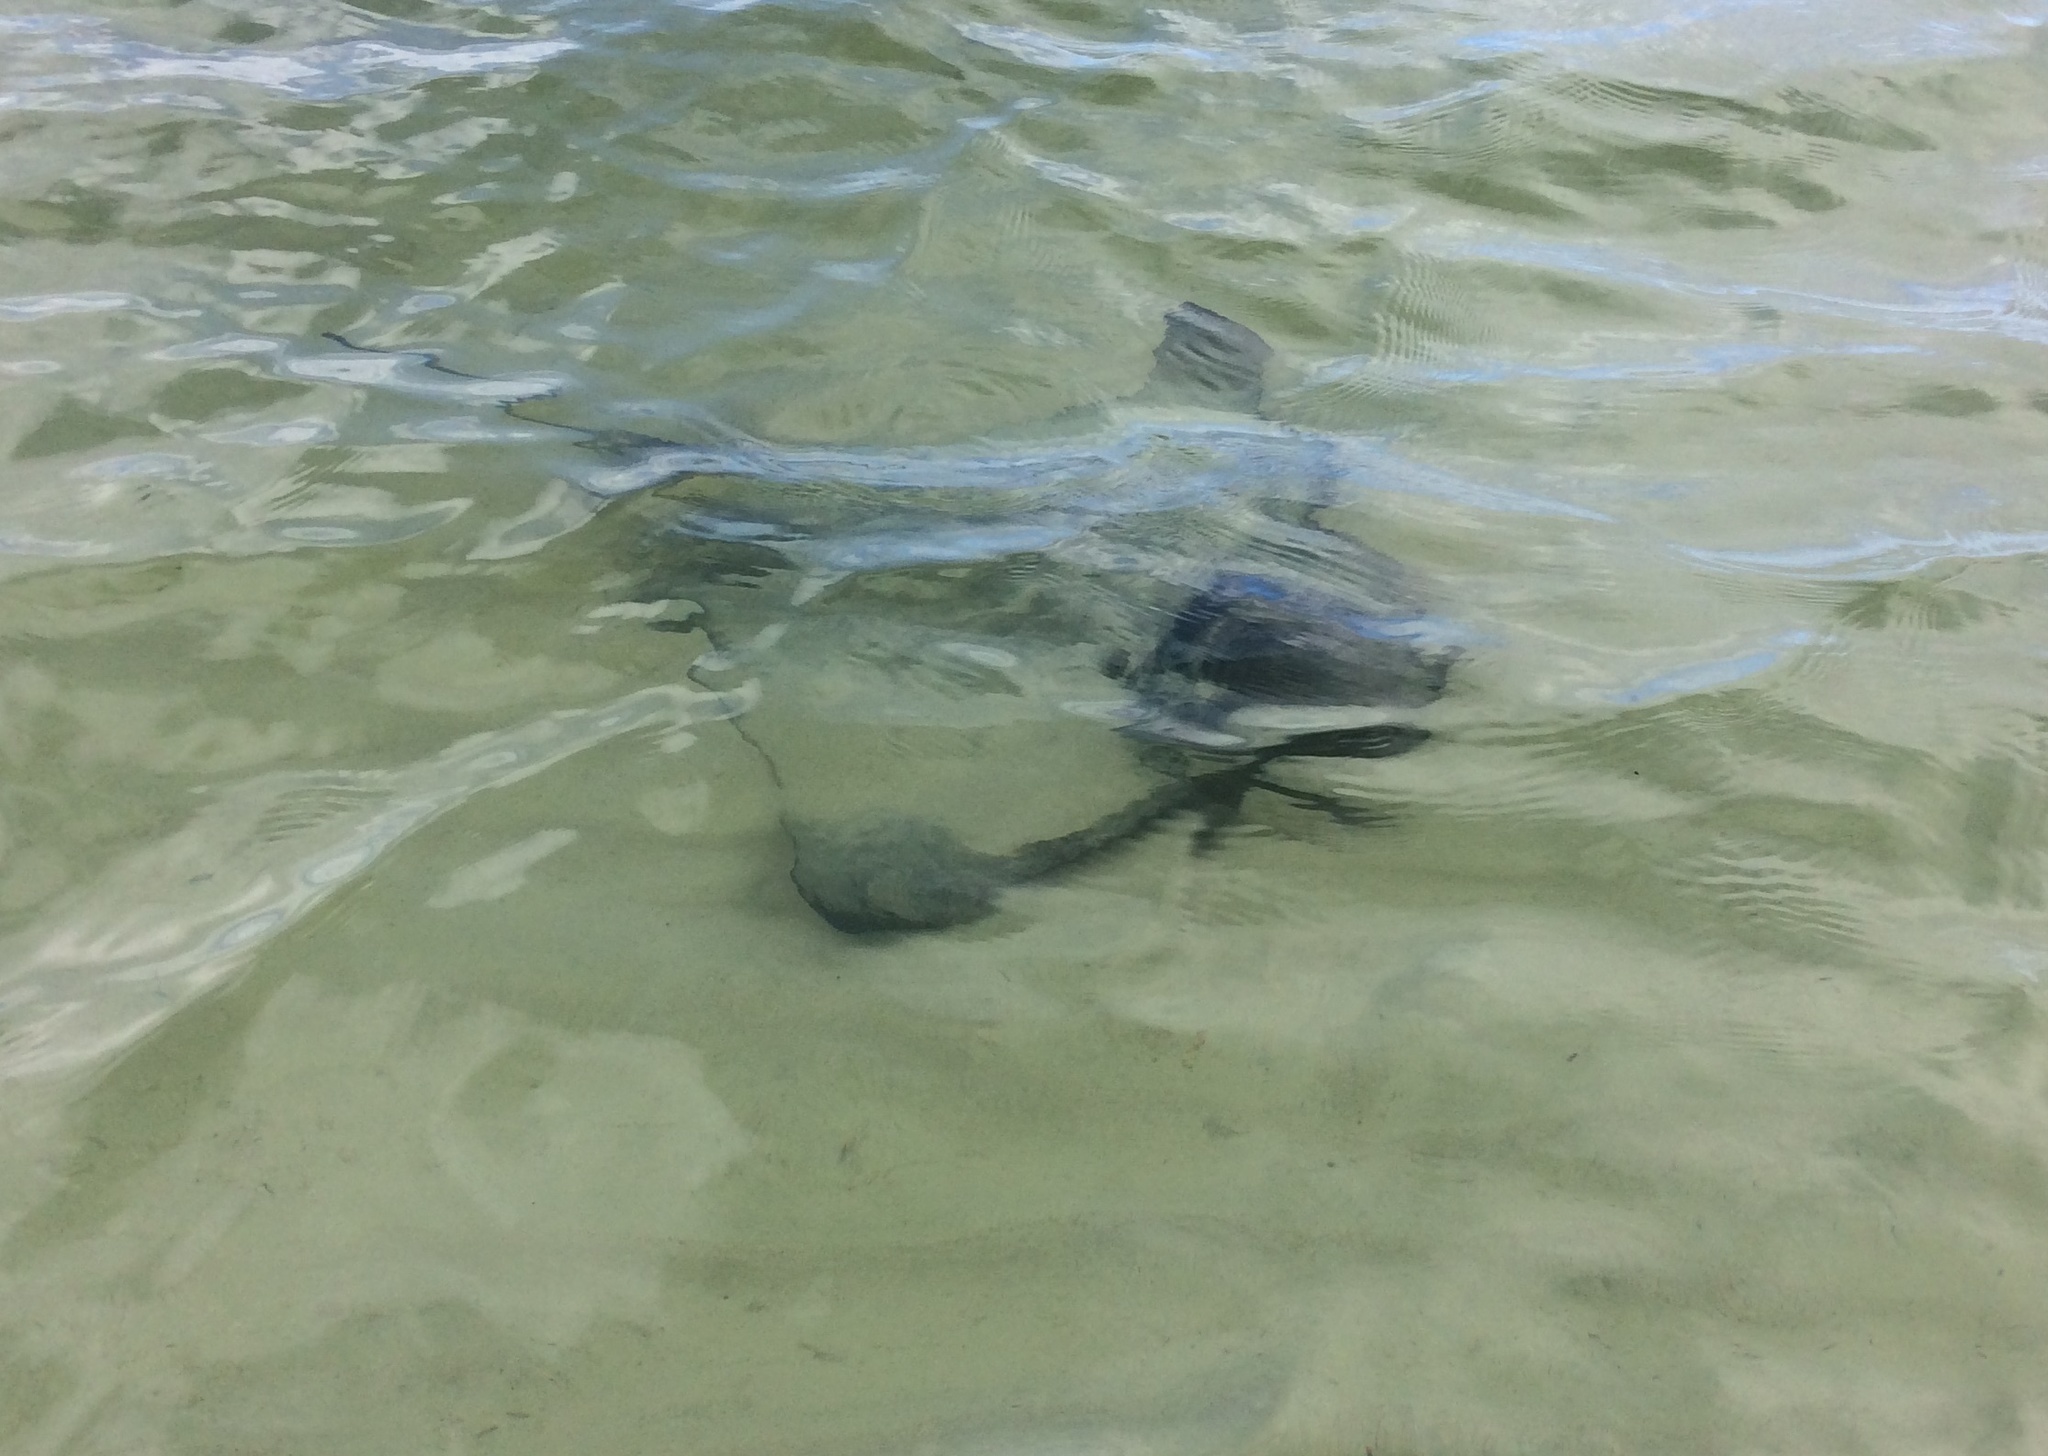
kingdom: Animalia
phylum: Chordata
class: Elasmobranchii
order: Myliobatiformes
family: Myliobatidae
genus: Myliobatis
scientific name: Myliobatis tenuicaudatus
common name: Eagle ray
